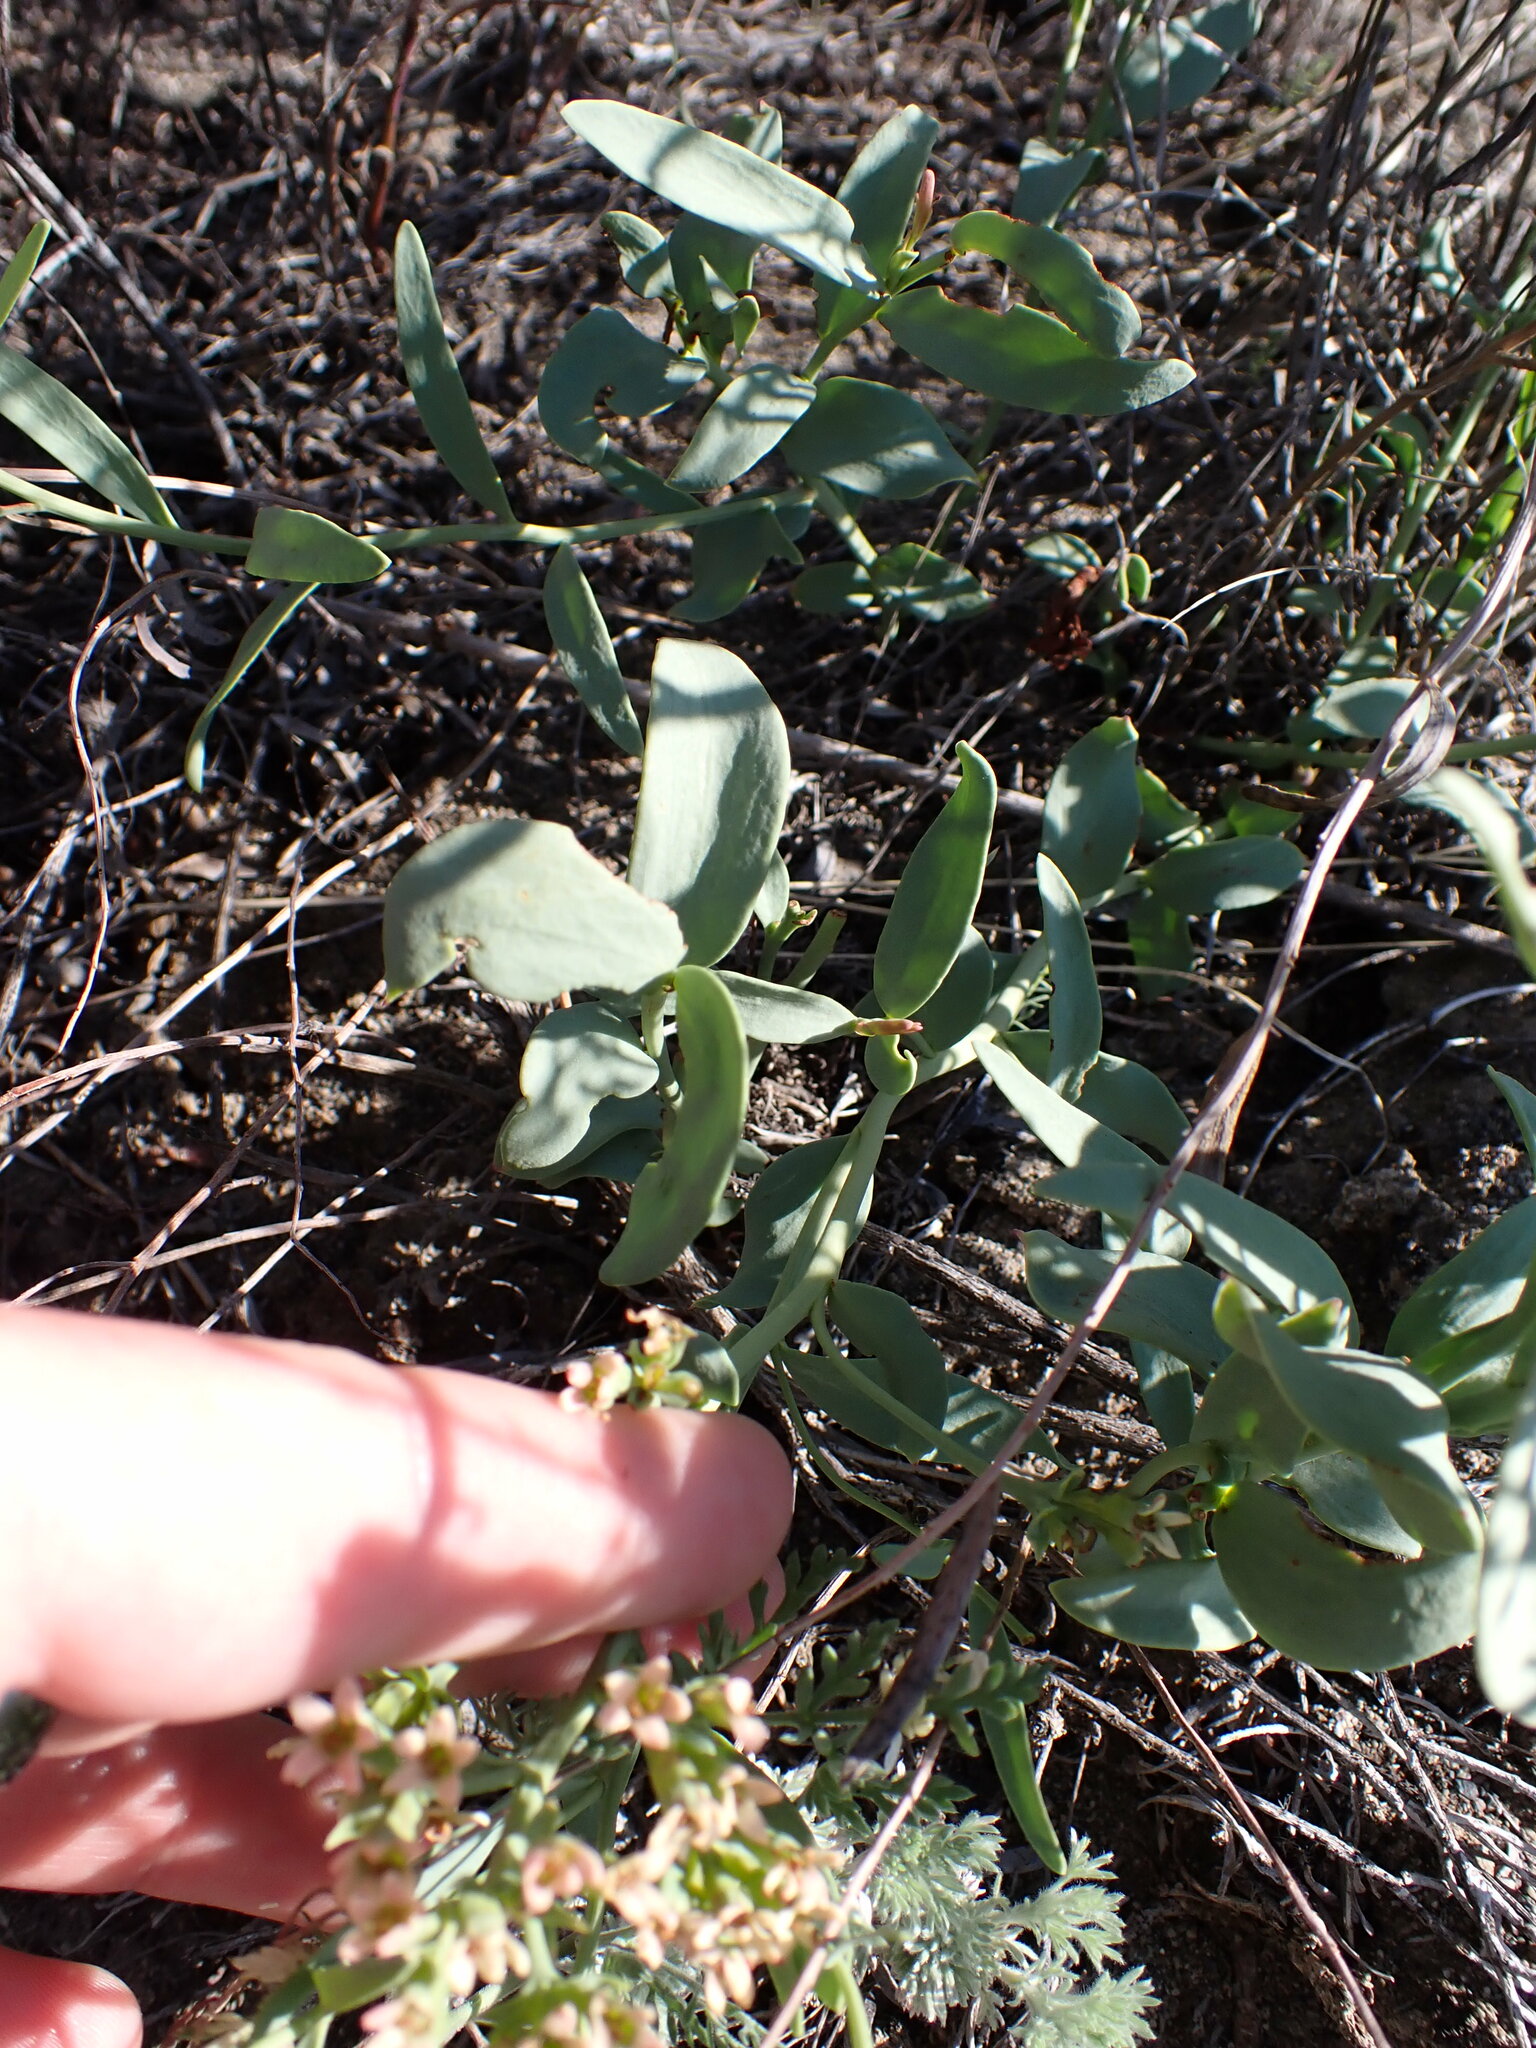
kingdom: Plantae
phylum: Tracheophyta
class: Magnoliopsida
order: Santalales
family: Comandraceae
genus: Comandra
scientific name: Comandra umbellata
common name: Bastard toadflax
